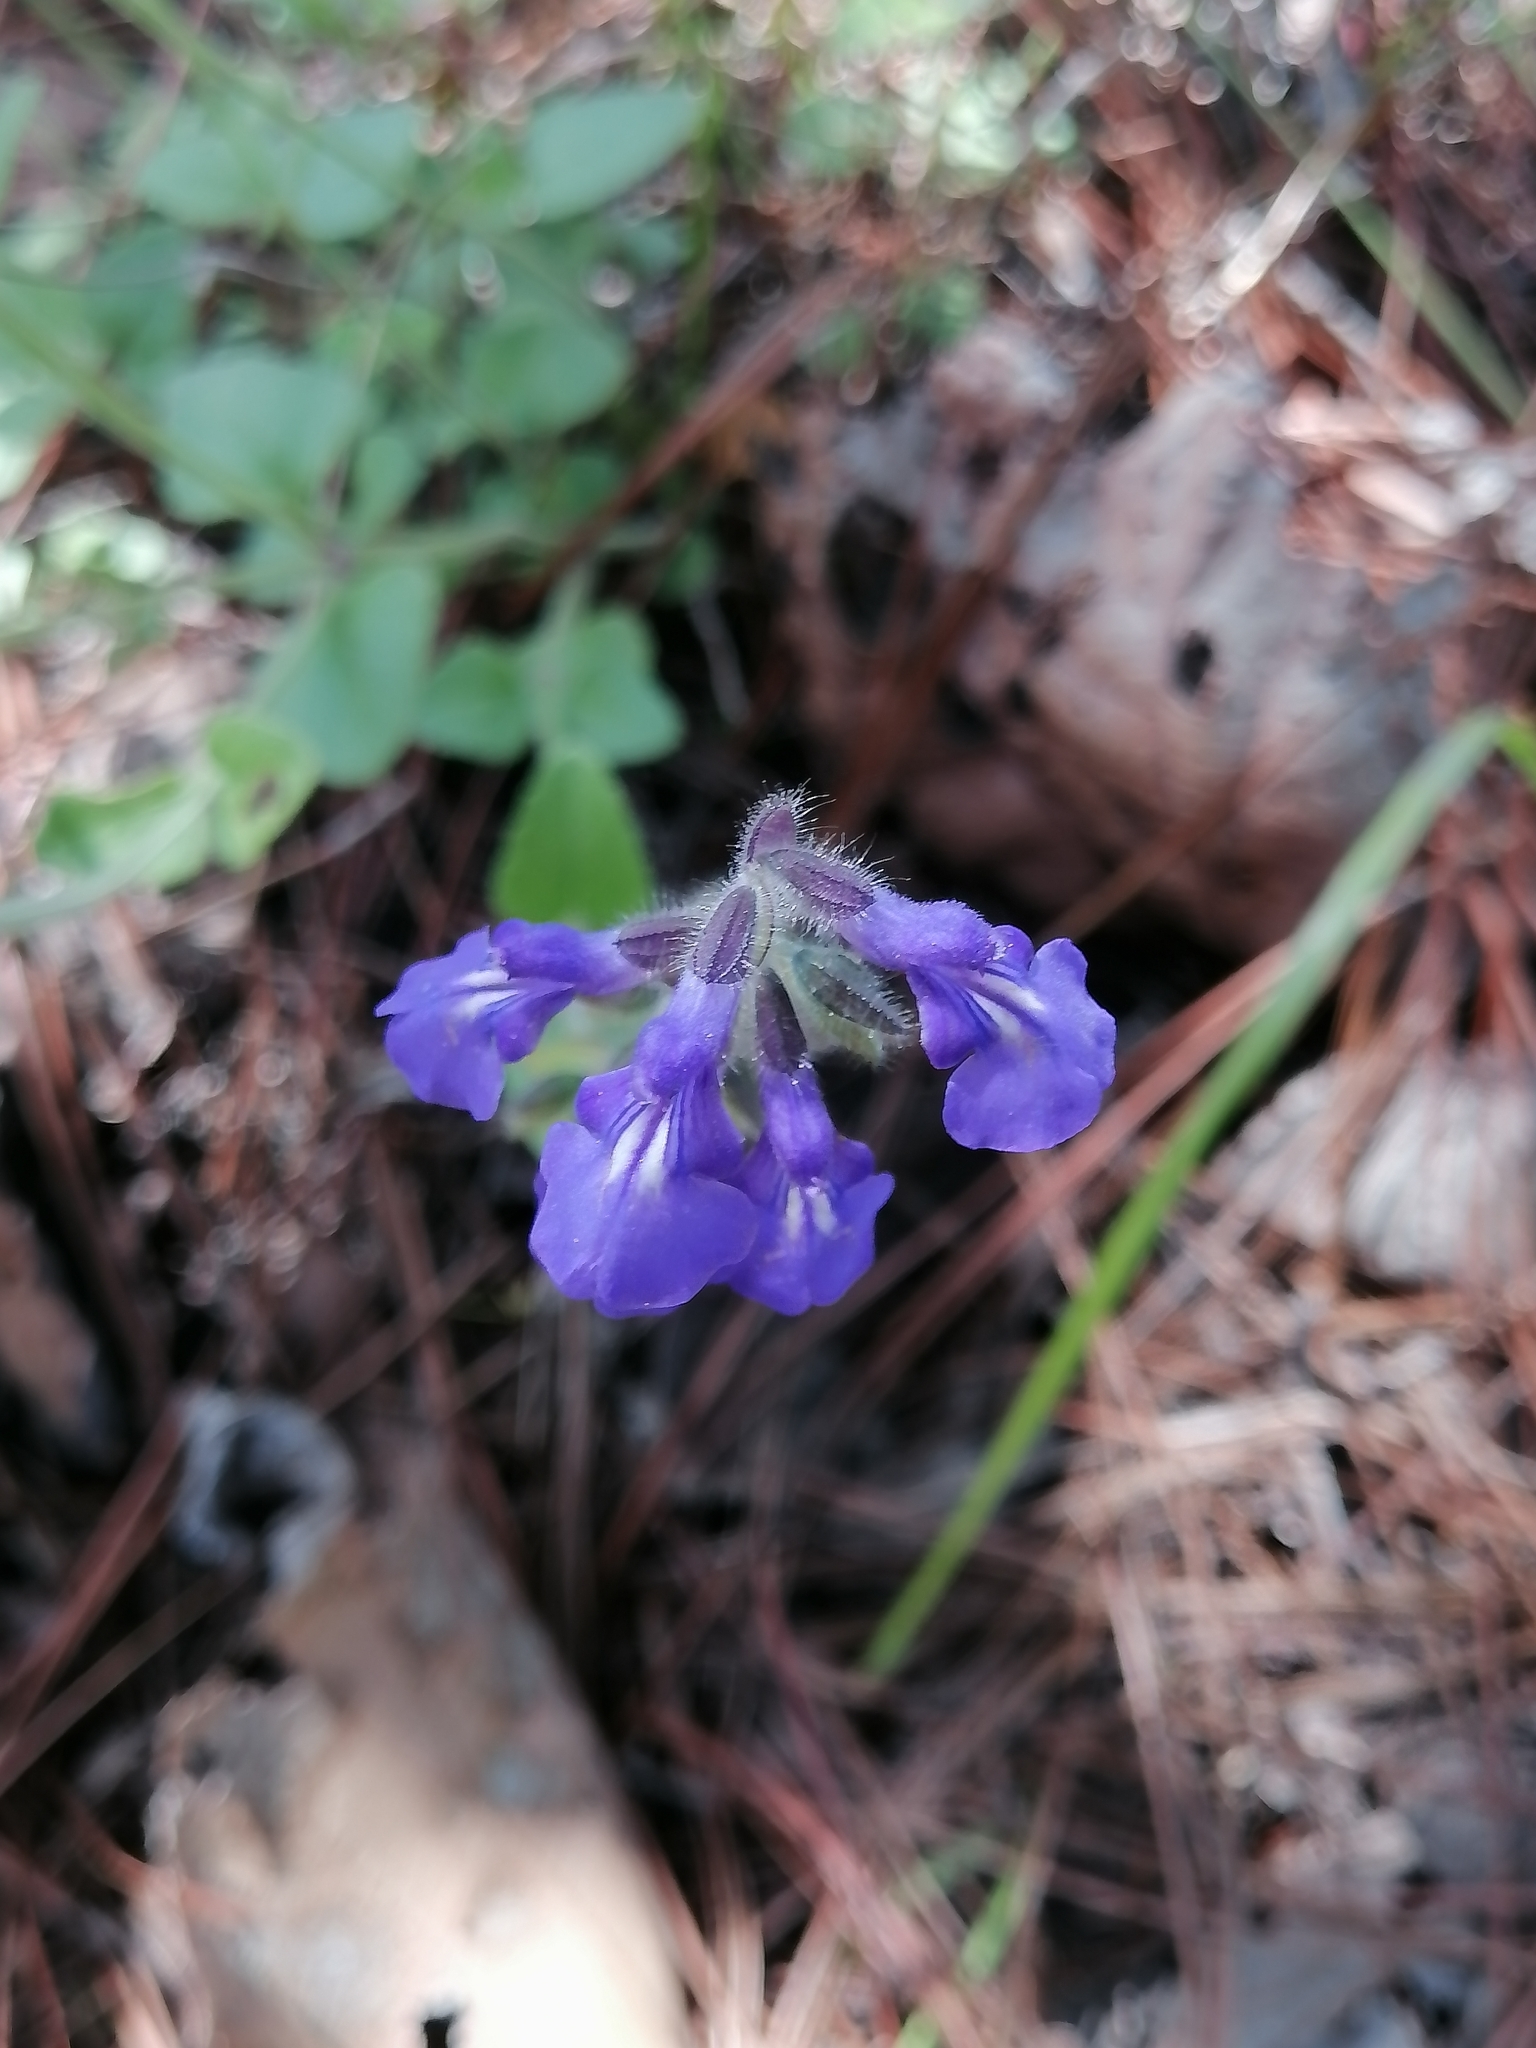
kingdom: Plantae
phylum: Tracheophyta
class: Magnoliopsida
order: Lamiales
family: Lamiaceae
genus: Salvia
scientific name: Salvia oreopola
